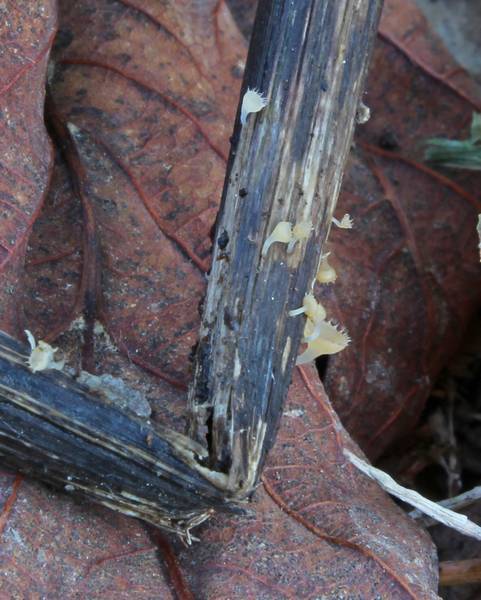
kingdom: Fungi
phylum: Ascomycota
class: Leotiomycetes
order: Helotiales
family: Helotiaceae
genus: Cyathicula
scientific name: Cyathicula coronata
